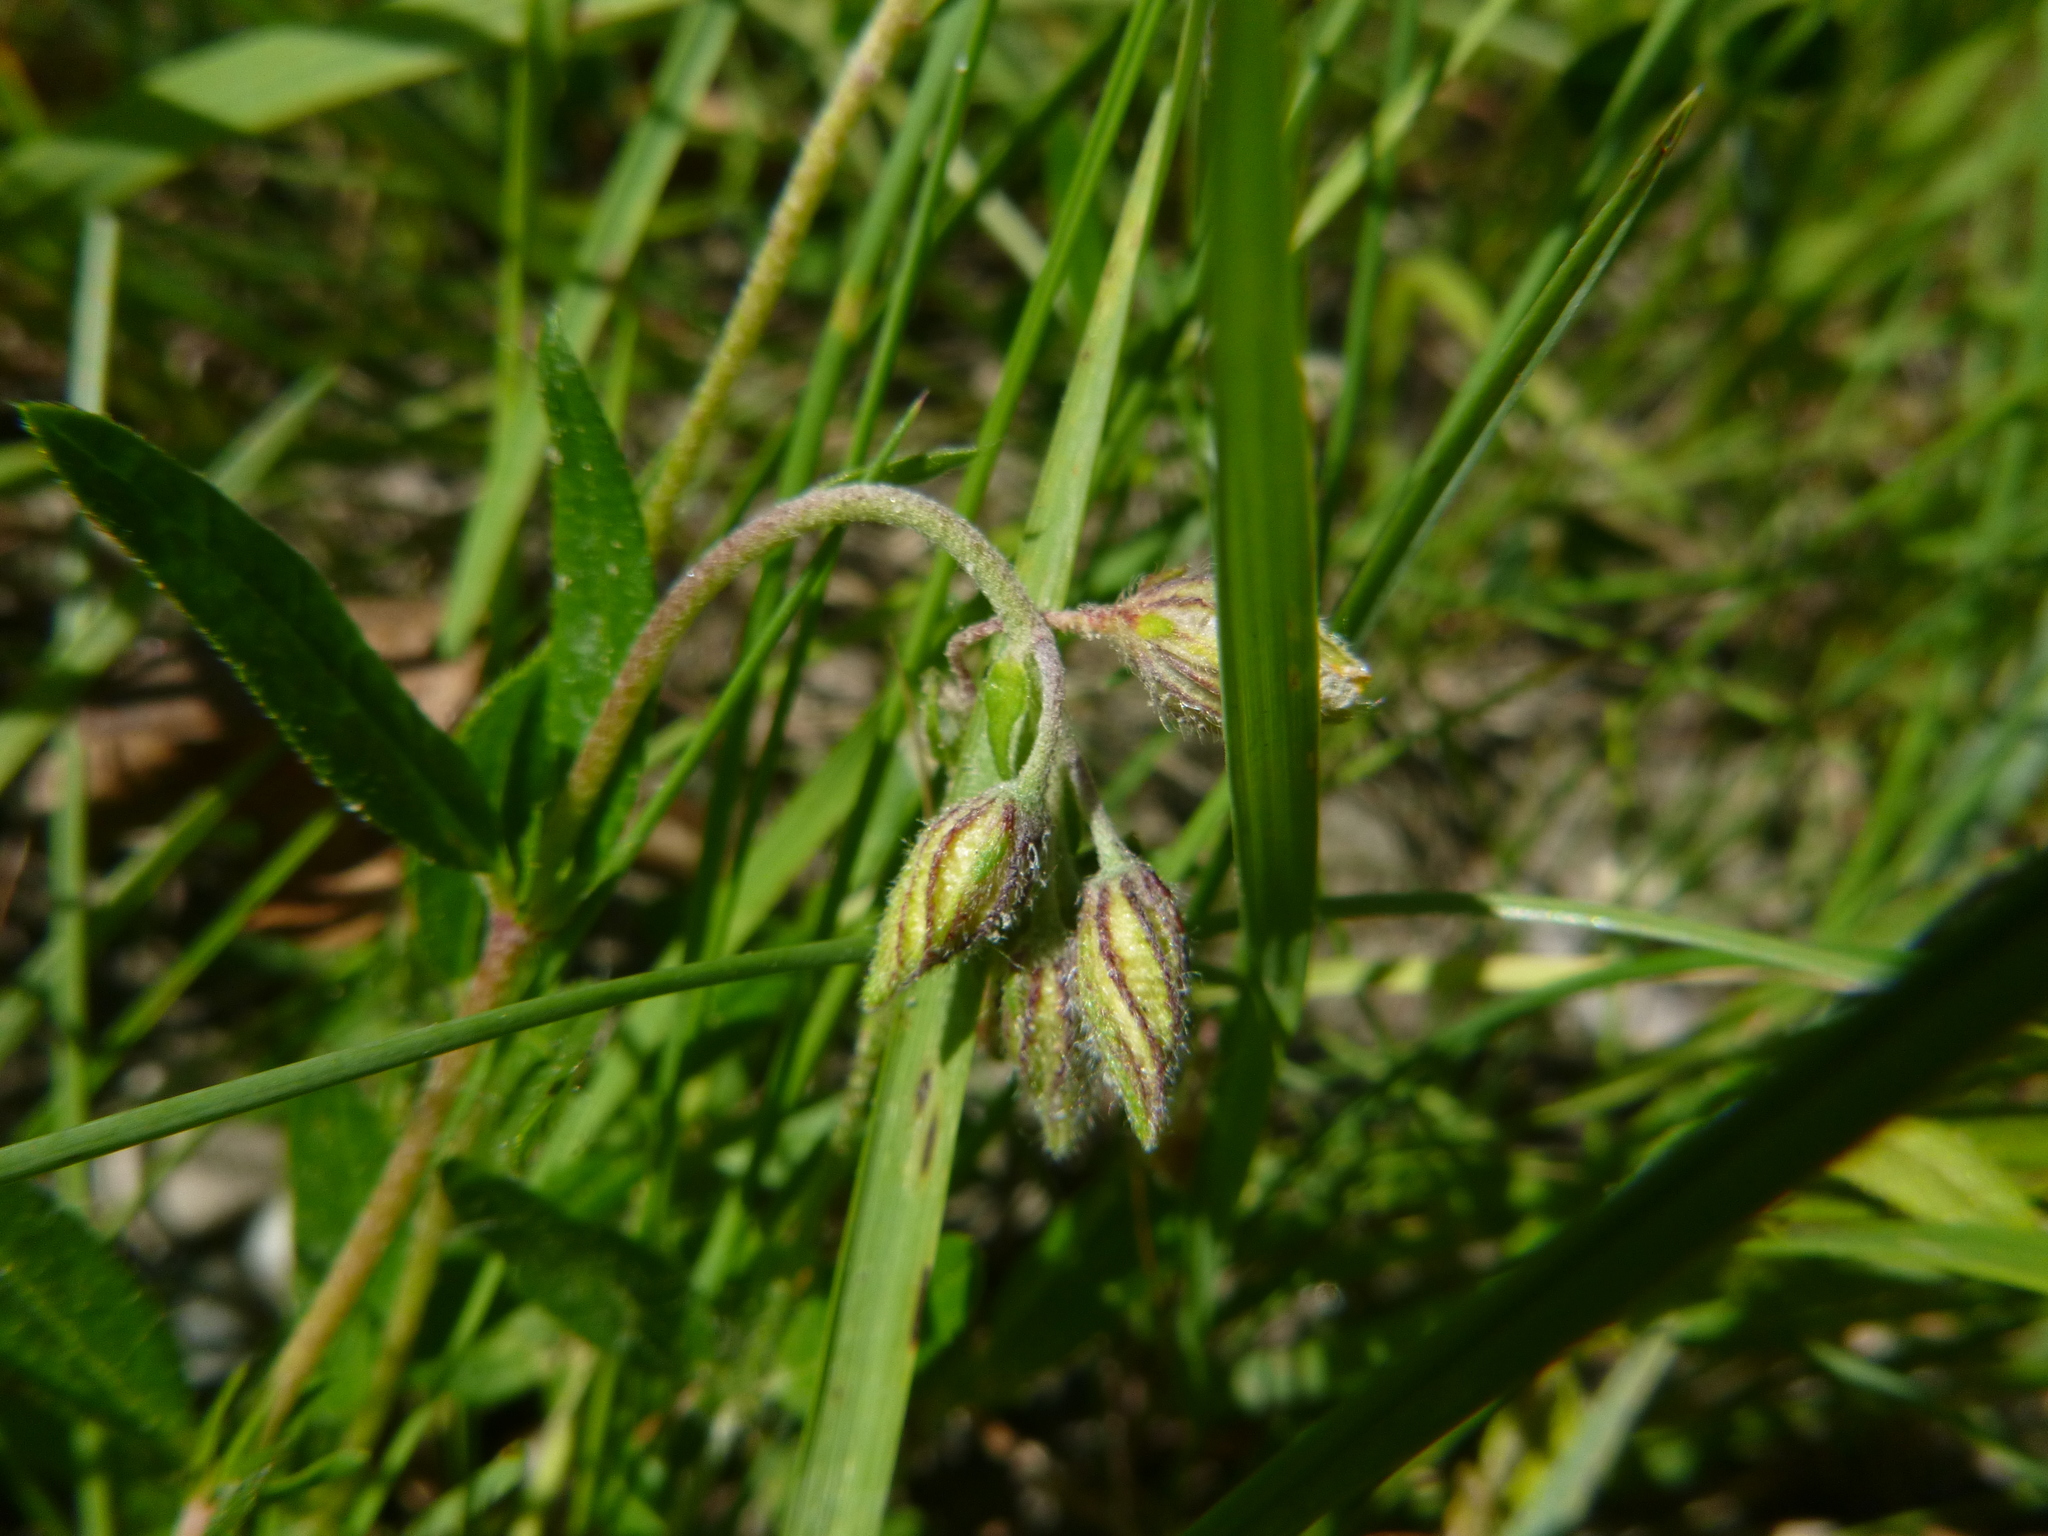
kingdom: Plantae
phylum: Tracheophyta
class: Magnoliopsida
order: Malvales
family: Cistaceae
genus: Helianthemum
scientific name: Helianthemum nummularium
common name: Common rock-rose
